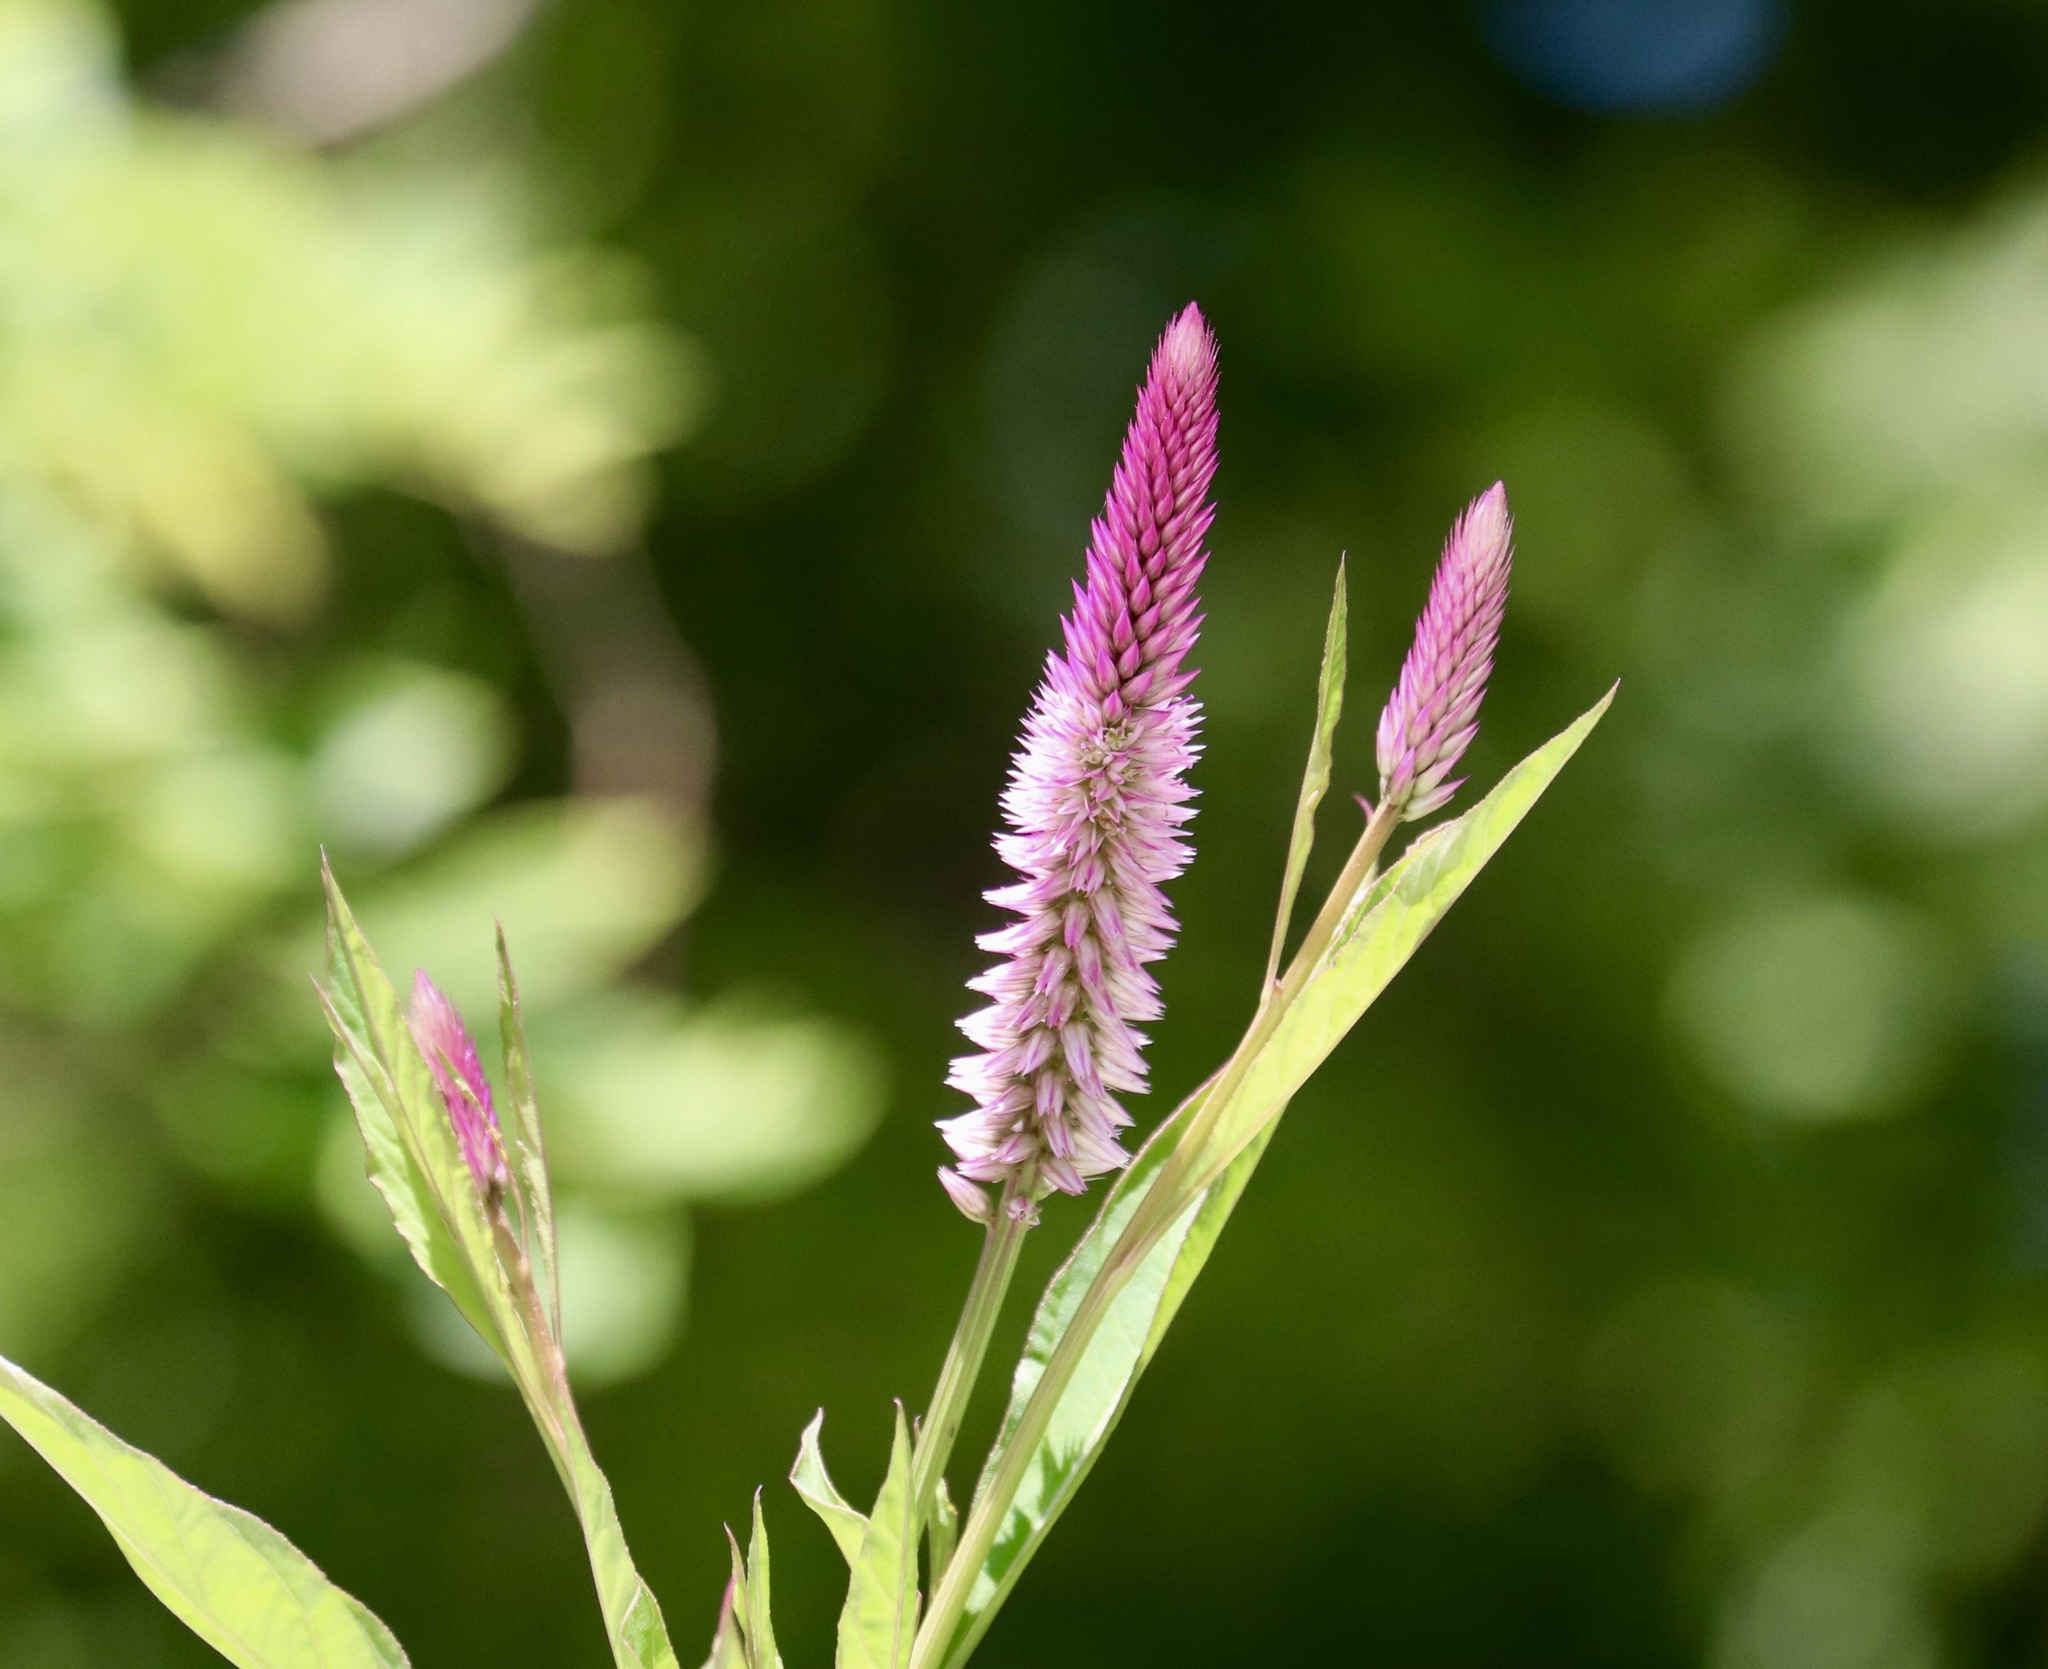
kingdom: Plantae
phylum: Tracheophyta
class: Magnoliopsida
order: Caryophyllales
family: Amaranthaceae
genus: Celosia
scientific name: Celosia argentea
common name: Feather cockscomb
